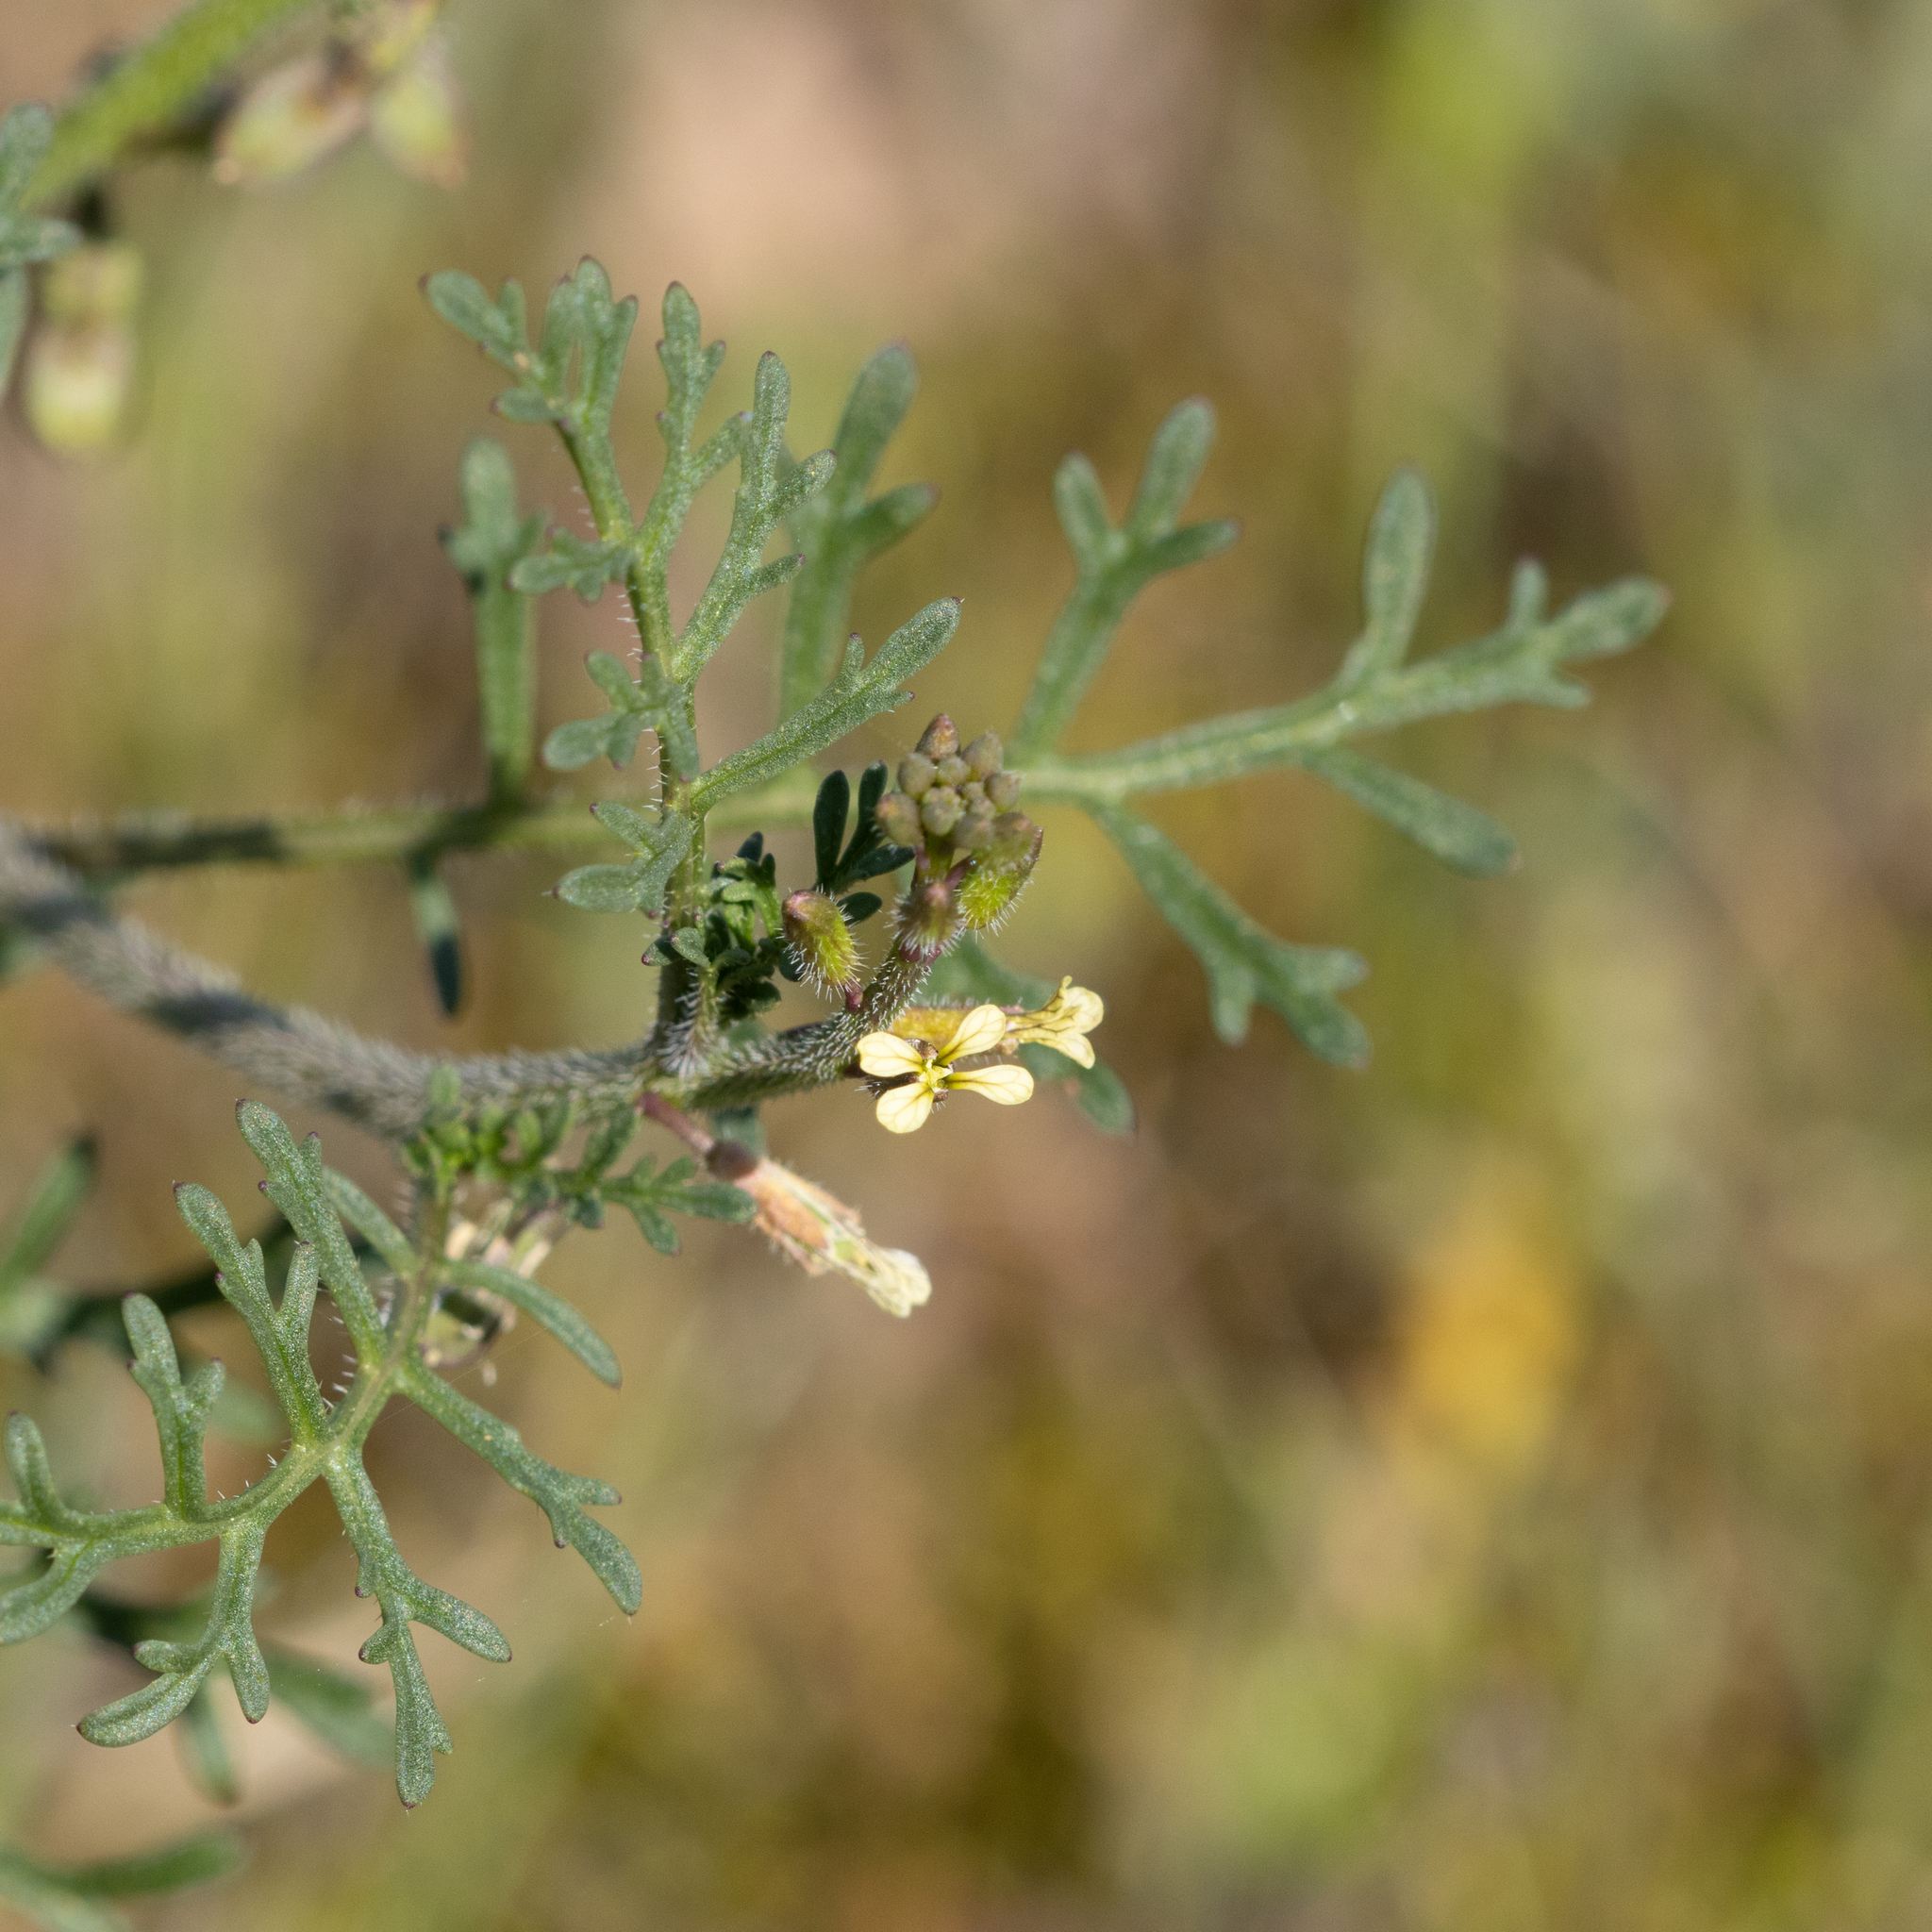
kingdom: Plantae
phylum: Tracheophyta
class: Magnoliopsida
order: Brassicales
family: Brassicaceae
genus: Carrichtera
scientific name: Carrichtera annua
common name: Cress rocket
